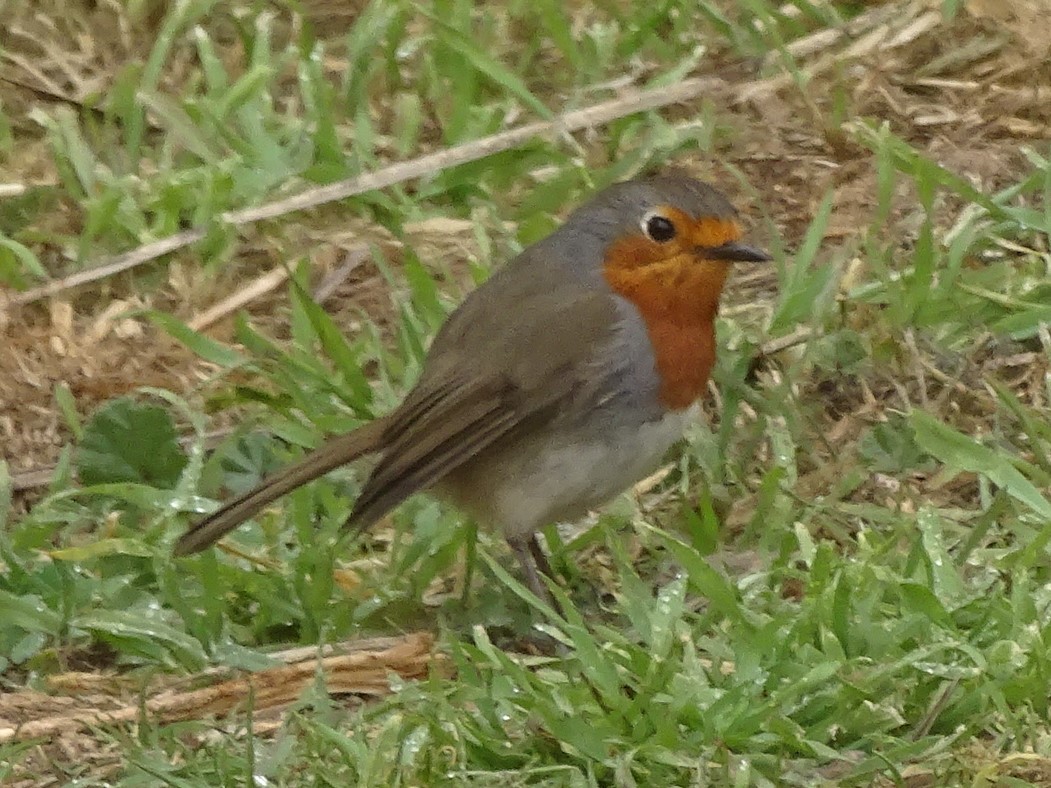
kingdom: Animalia
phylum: Chordata
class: Aves
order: Passeriformes
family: Muscicapidae
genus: Erithacus
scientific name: Erithacus rubecula
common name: European robin
